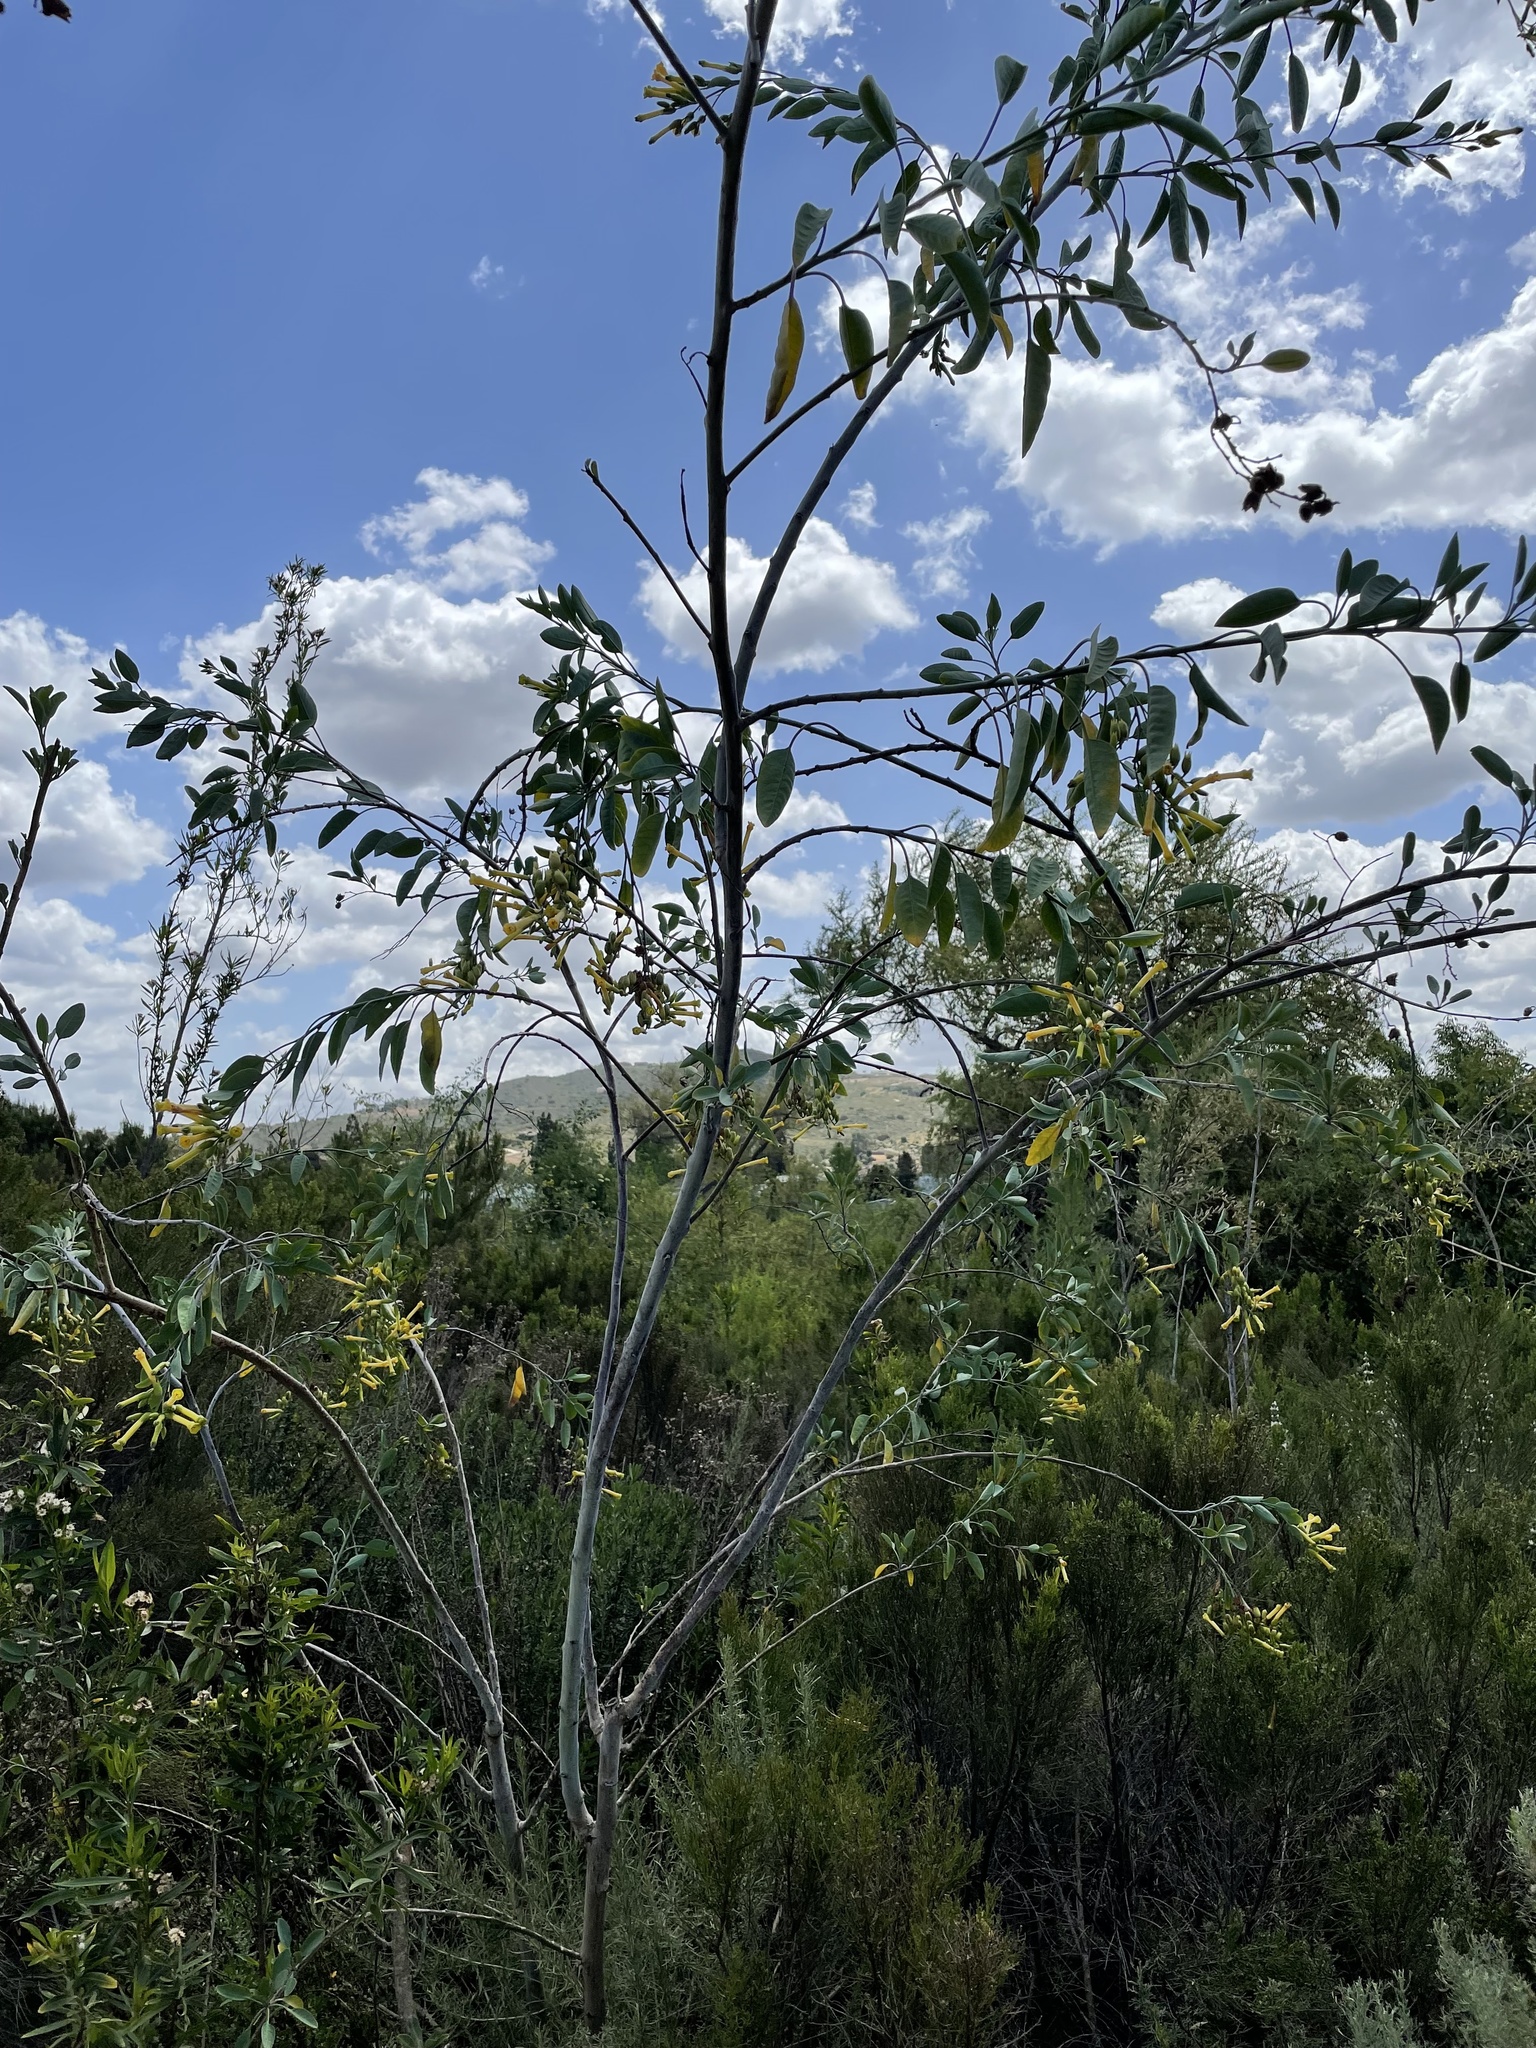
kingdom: Plantae
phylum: Tracheophyta
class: Magnoliopsida
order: Solanales
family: Solanaceae
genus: Nicotiana
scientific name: Nicotiana glauca
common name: Tree tobacco
